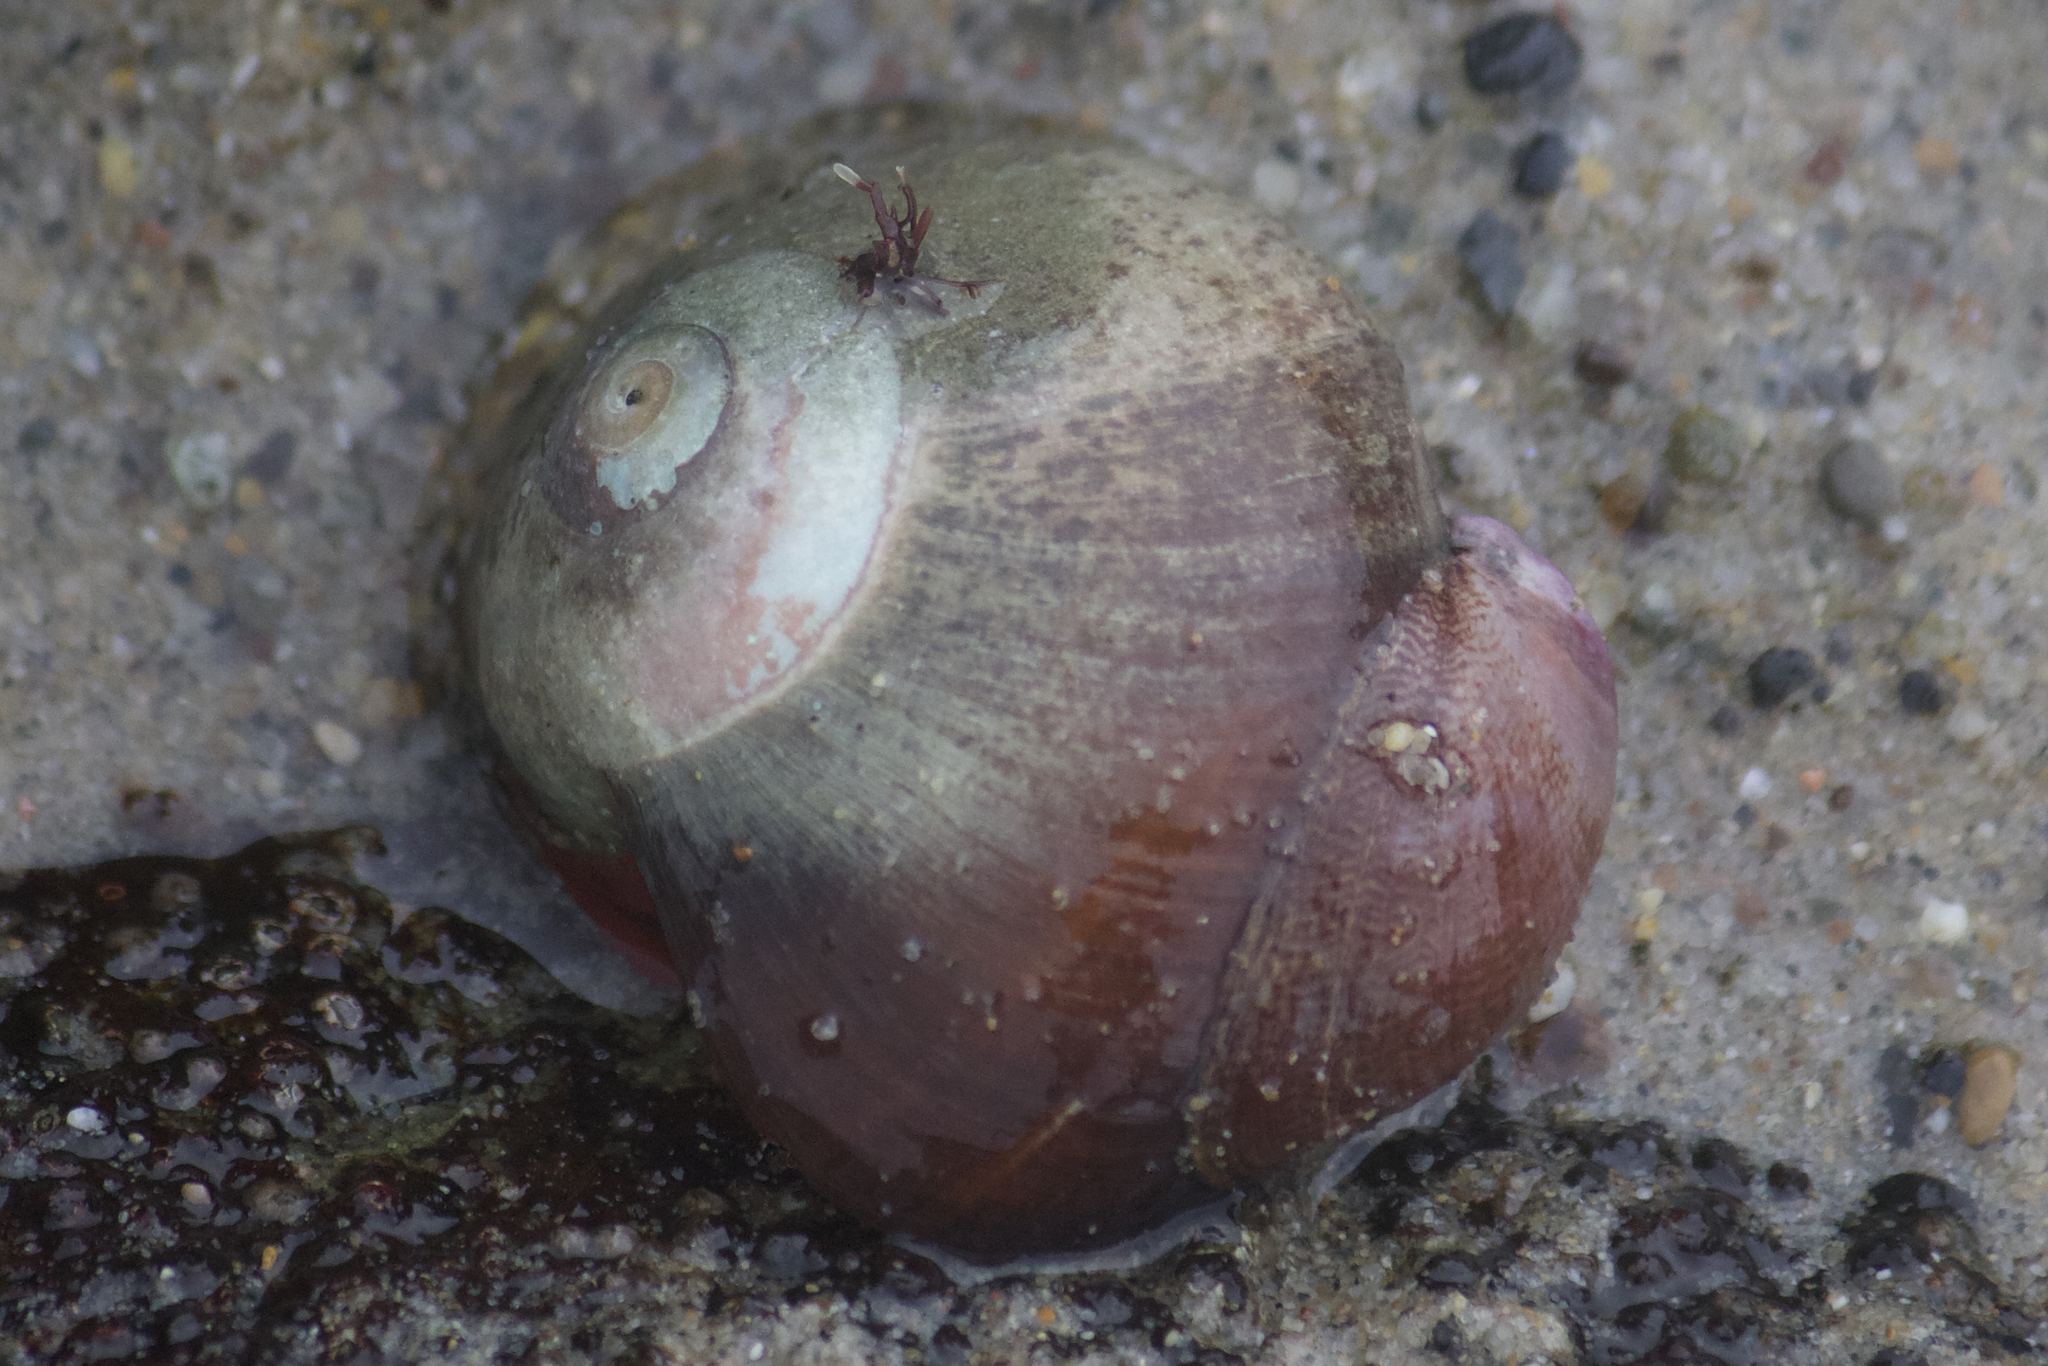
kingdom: Animalia
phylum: Mollusca
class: Gastropoda
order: Trochida
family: Tegulidae
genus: Norrisia
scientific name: Norrisia norrisii
